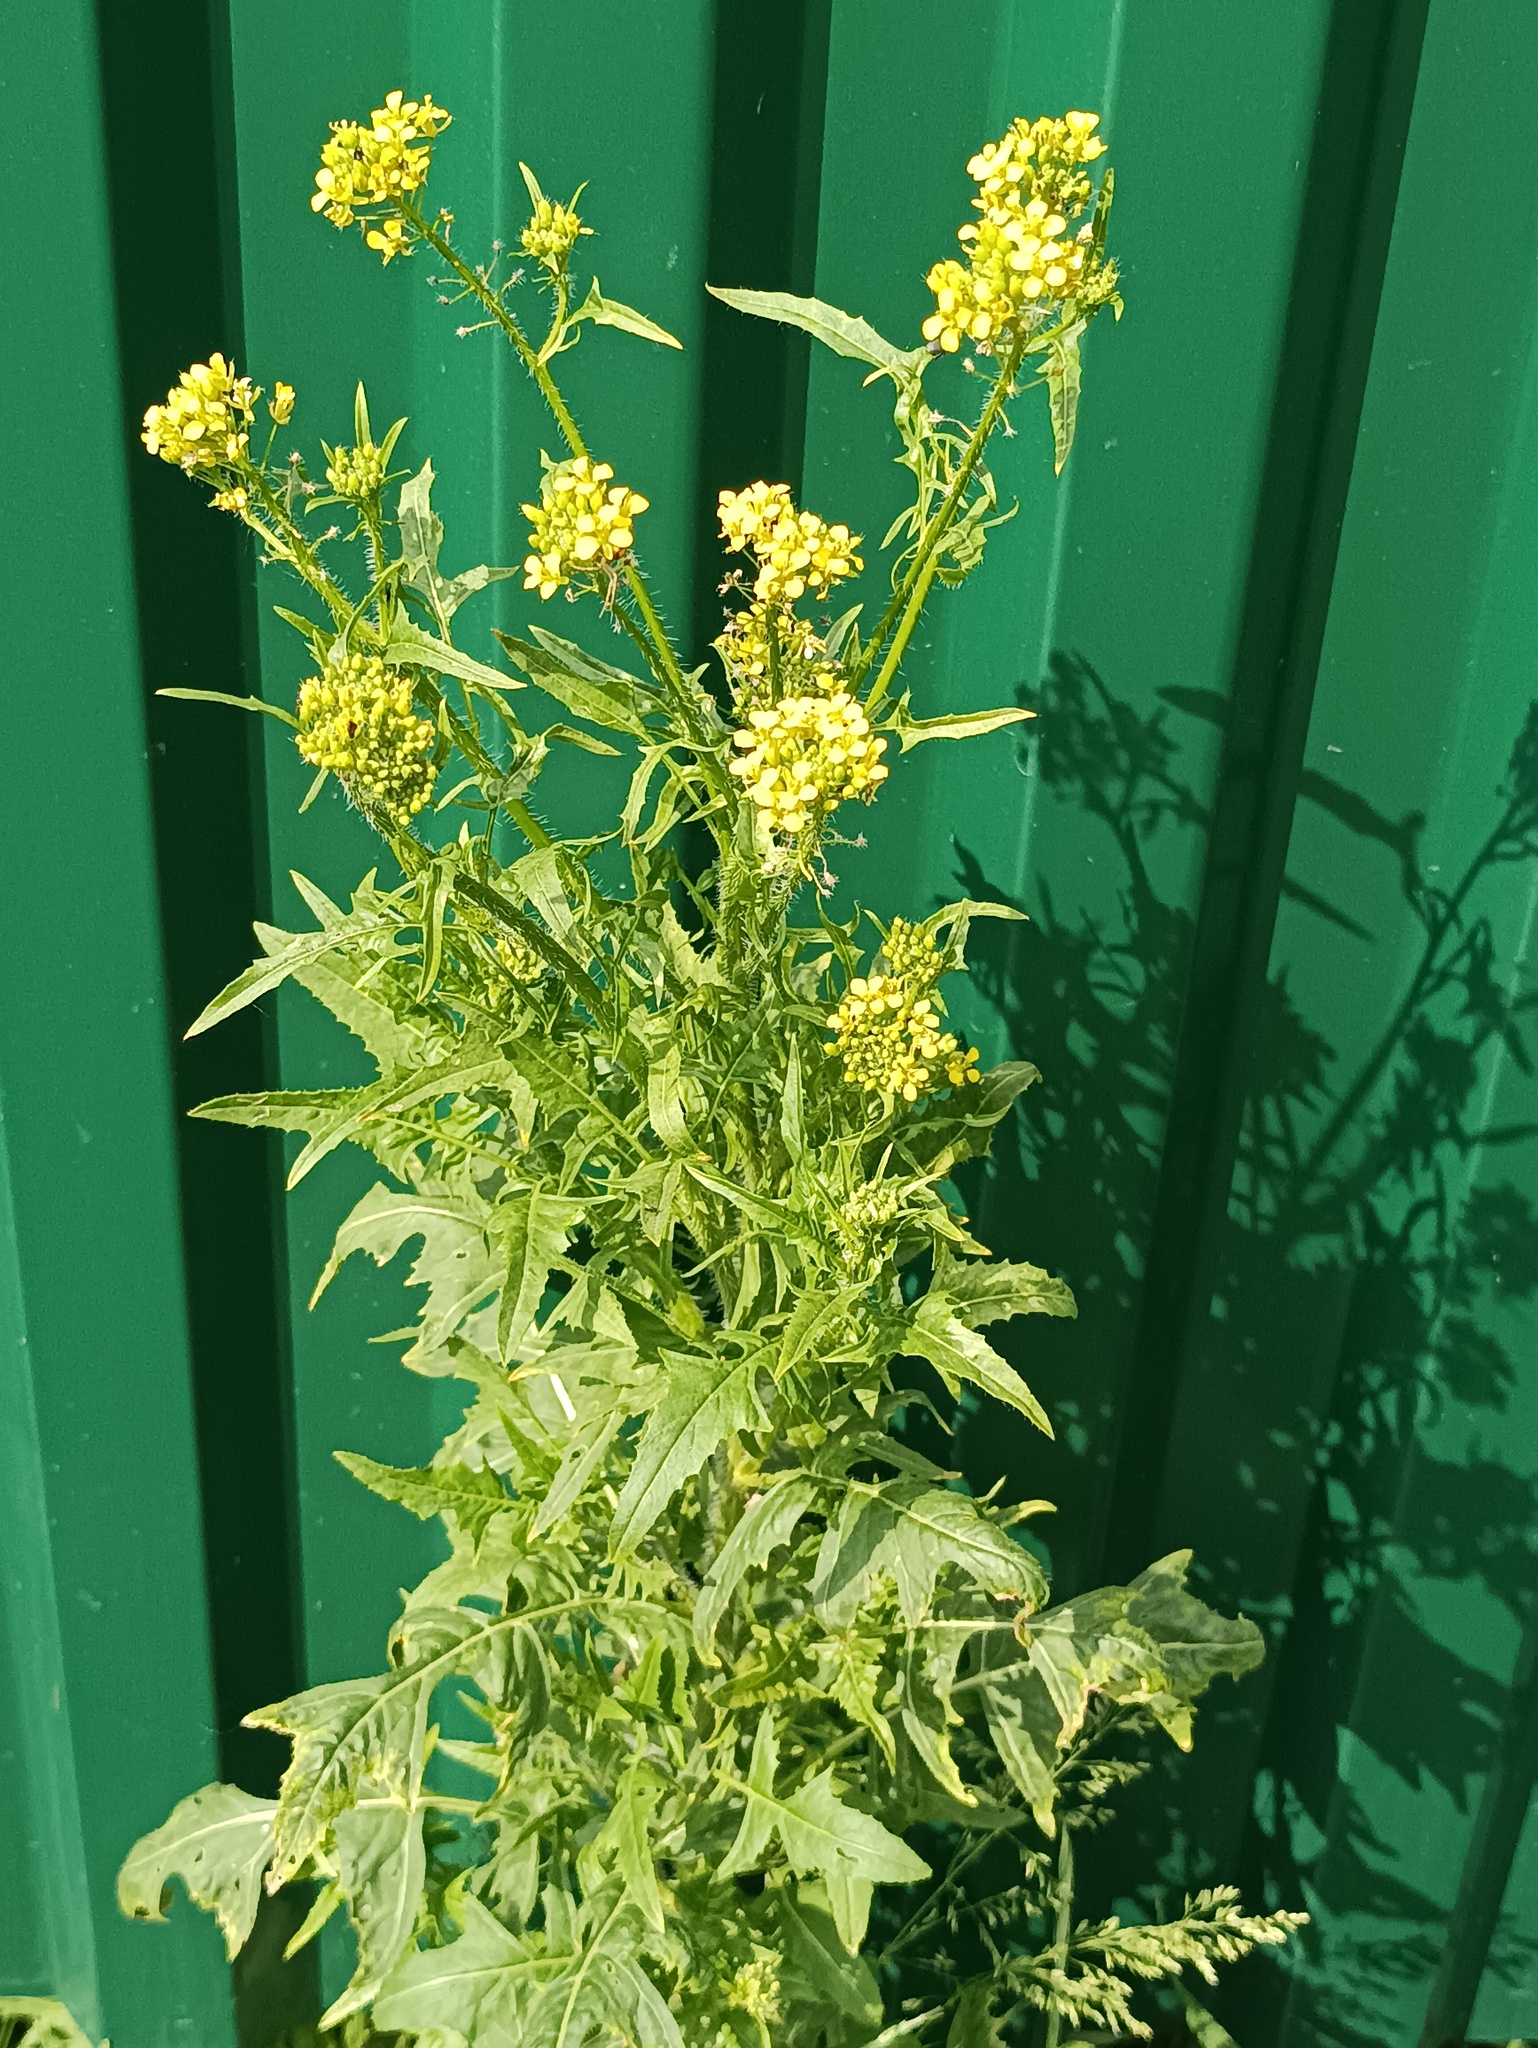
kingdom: Plantae
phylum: Tracheophyta
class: Magnoliopsida
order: Brassicales
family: Brassicaceae
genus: Sisymbrium
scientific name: Sisymbrium loeselii
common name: False london-rocket
